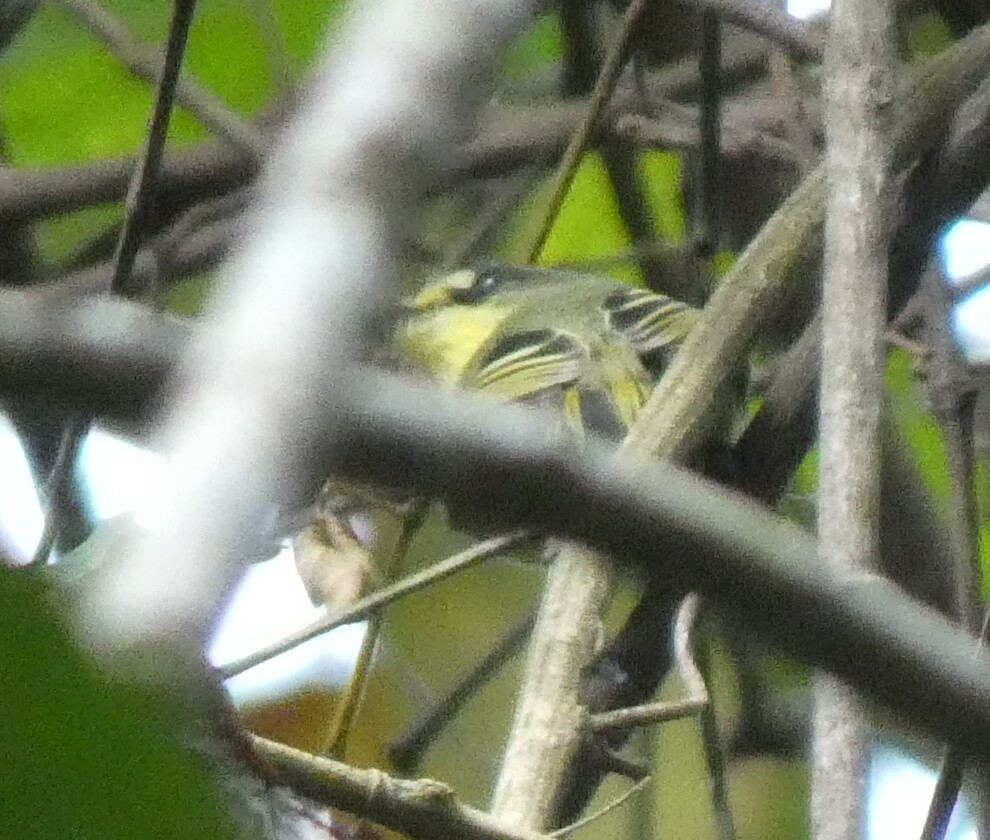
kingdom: Animalia
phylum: Chordata
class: Aves
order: Passeriformes
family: Tyrannidae
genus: Todirostrum
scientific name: Todirostrum poliocephalum
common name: Yellow-lored tody-flycatcher
